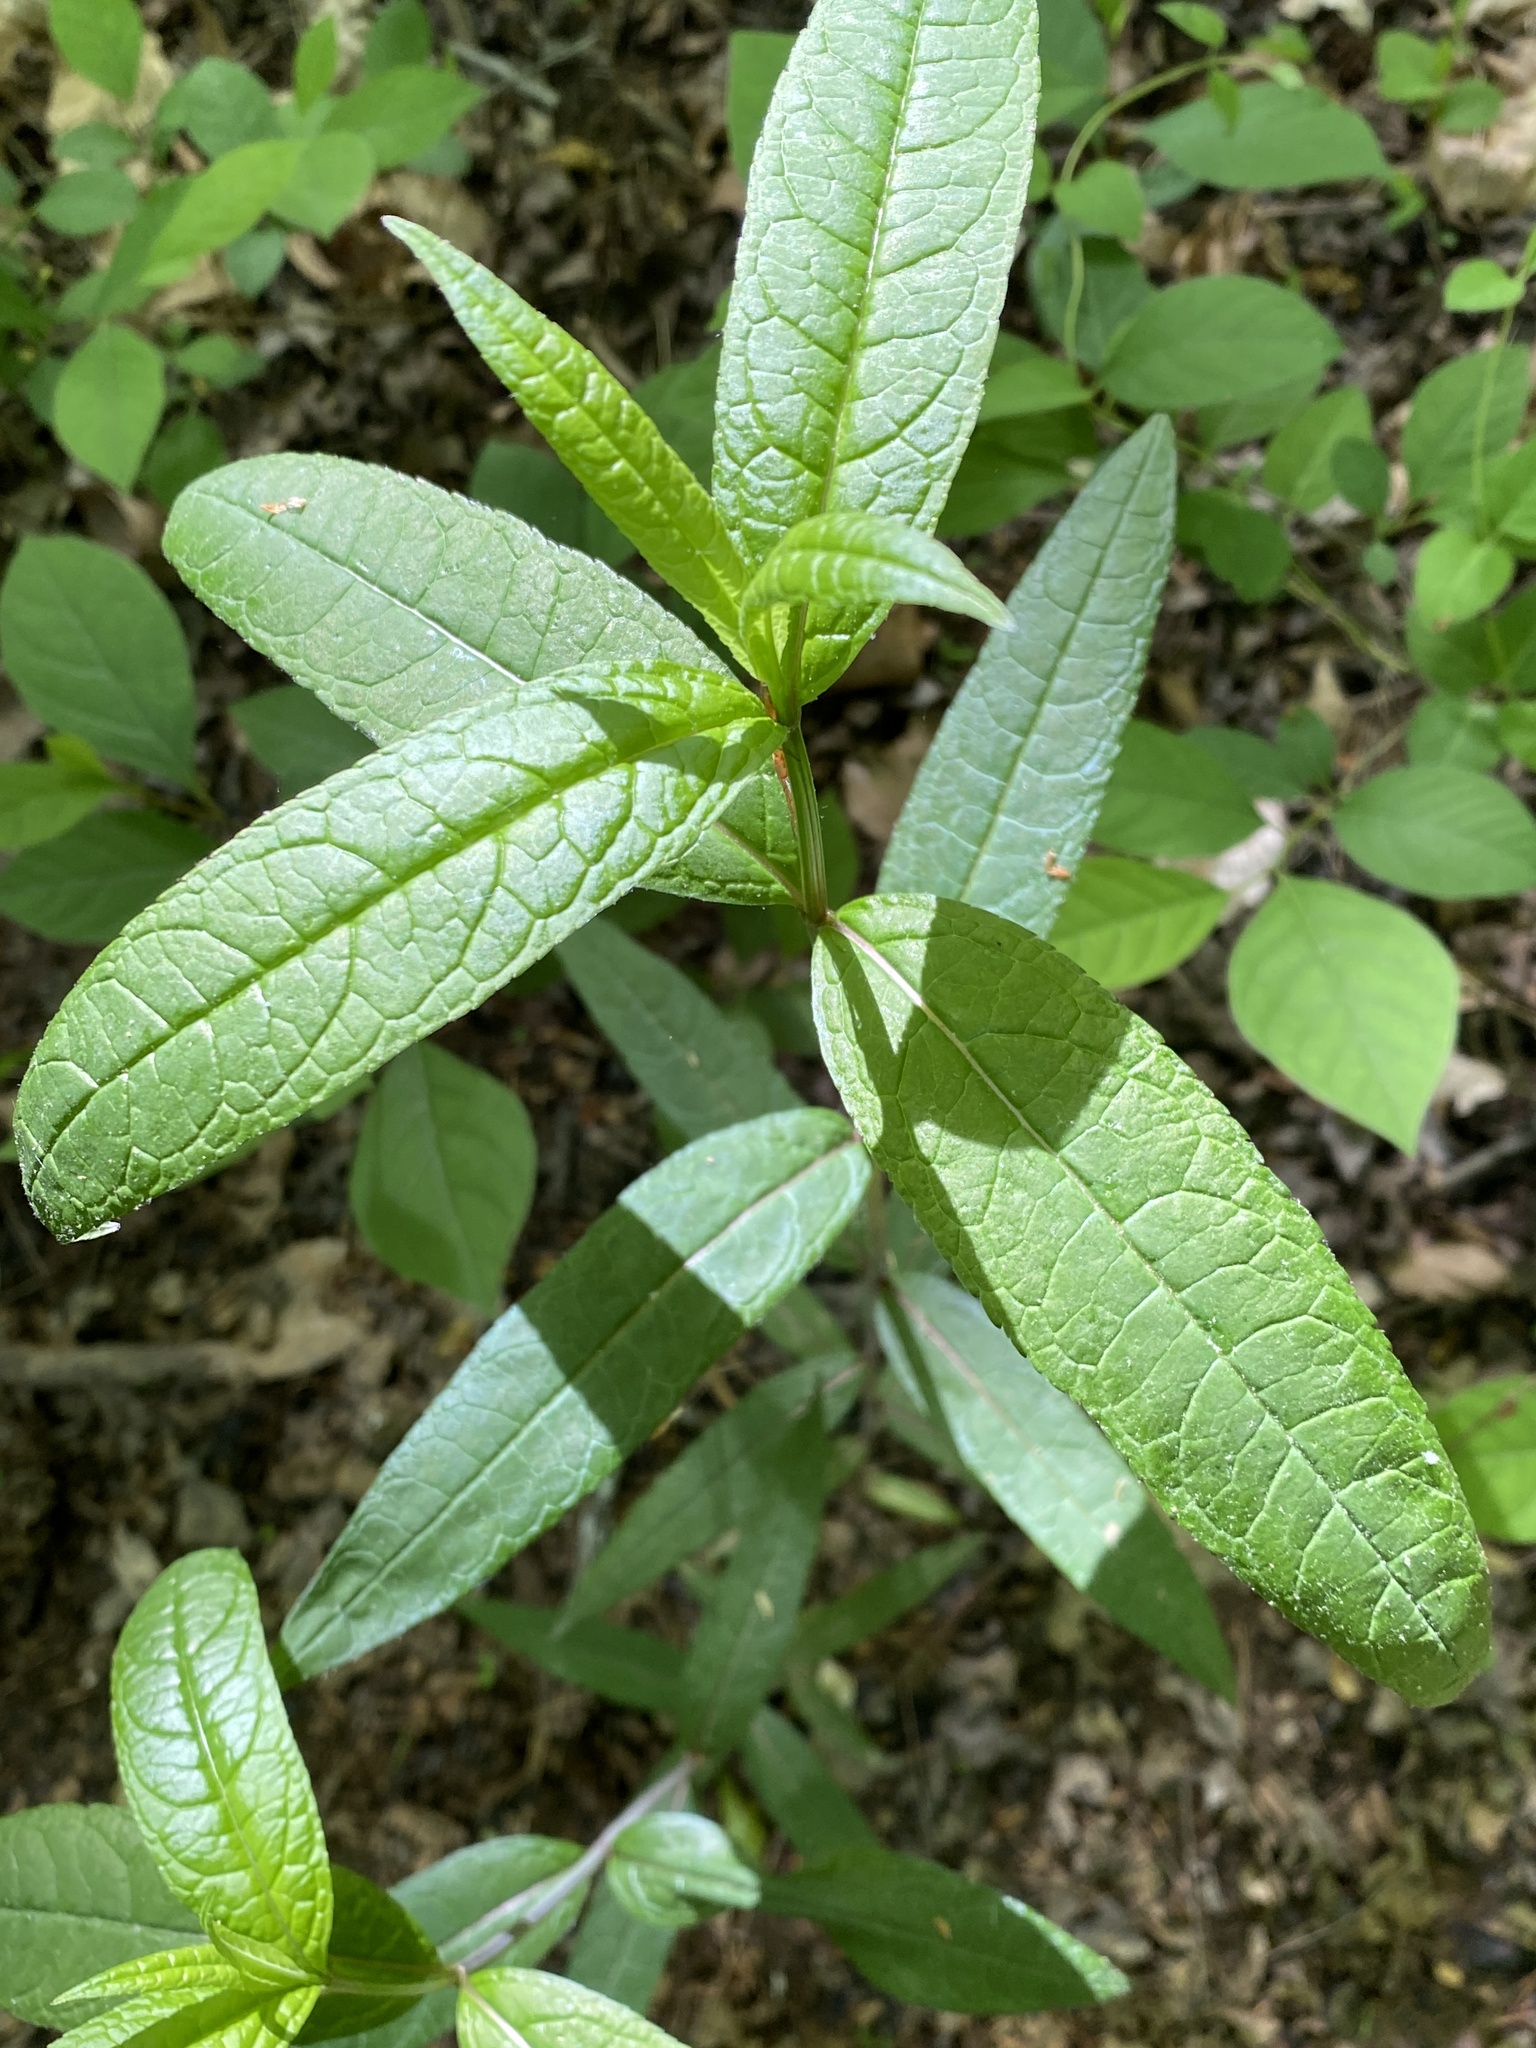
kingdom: Plantae
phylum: Tracheophyta
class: Magnoliopsida
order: Lamiales
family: Plantaginaceae
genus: Chelone
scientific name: Chelone glabra
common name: Snakehead
